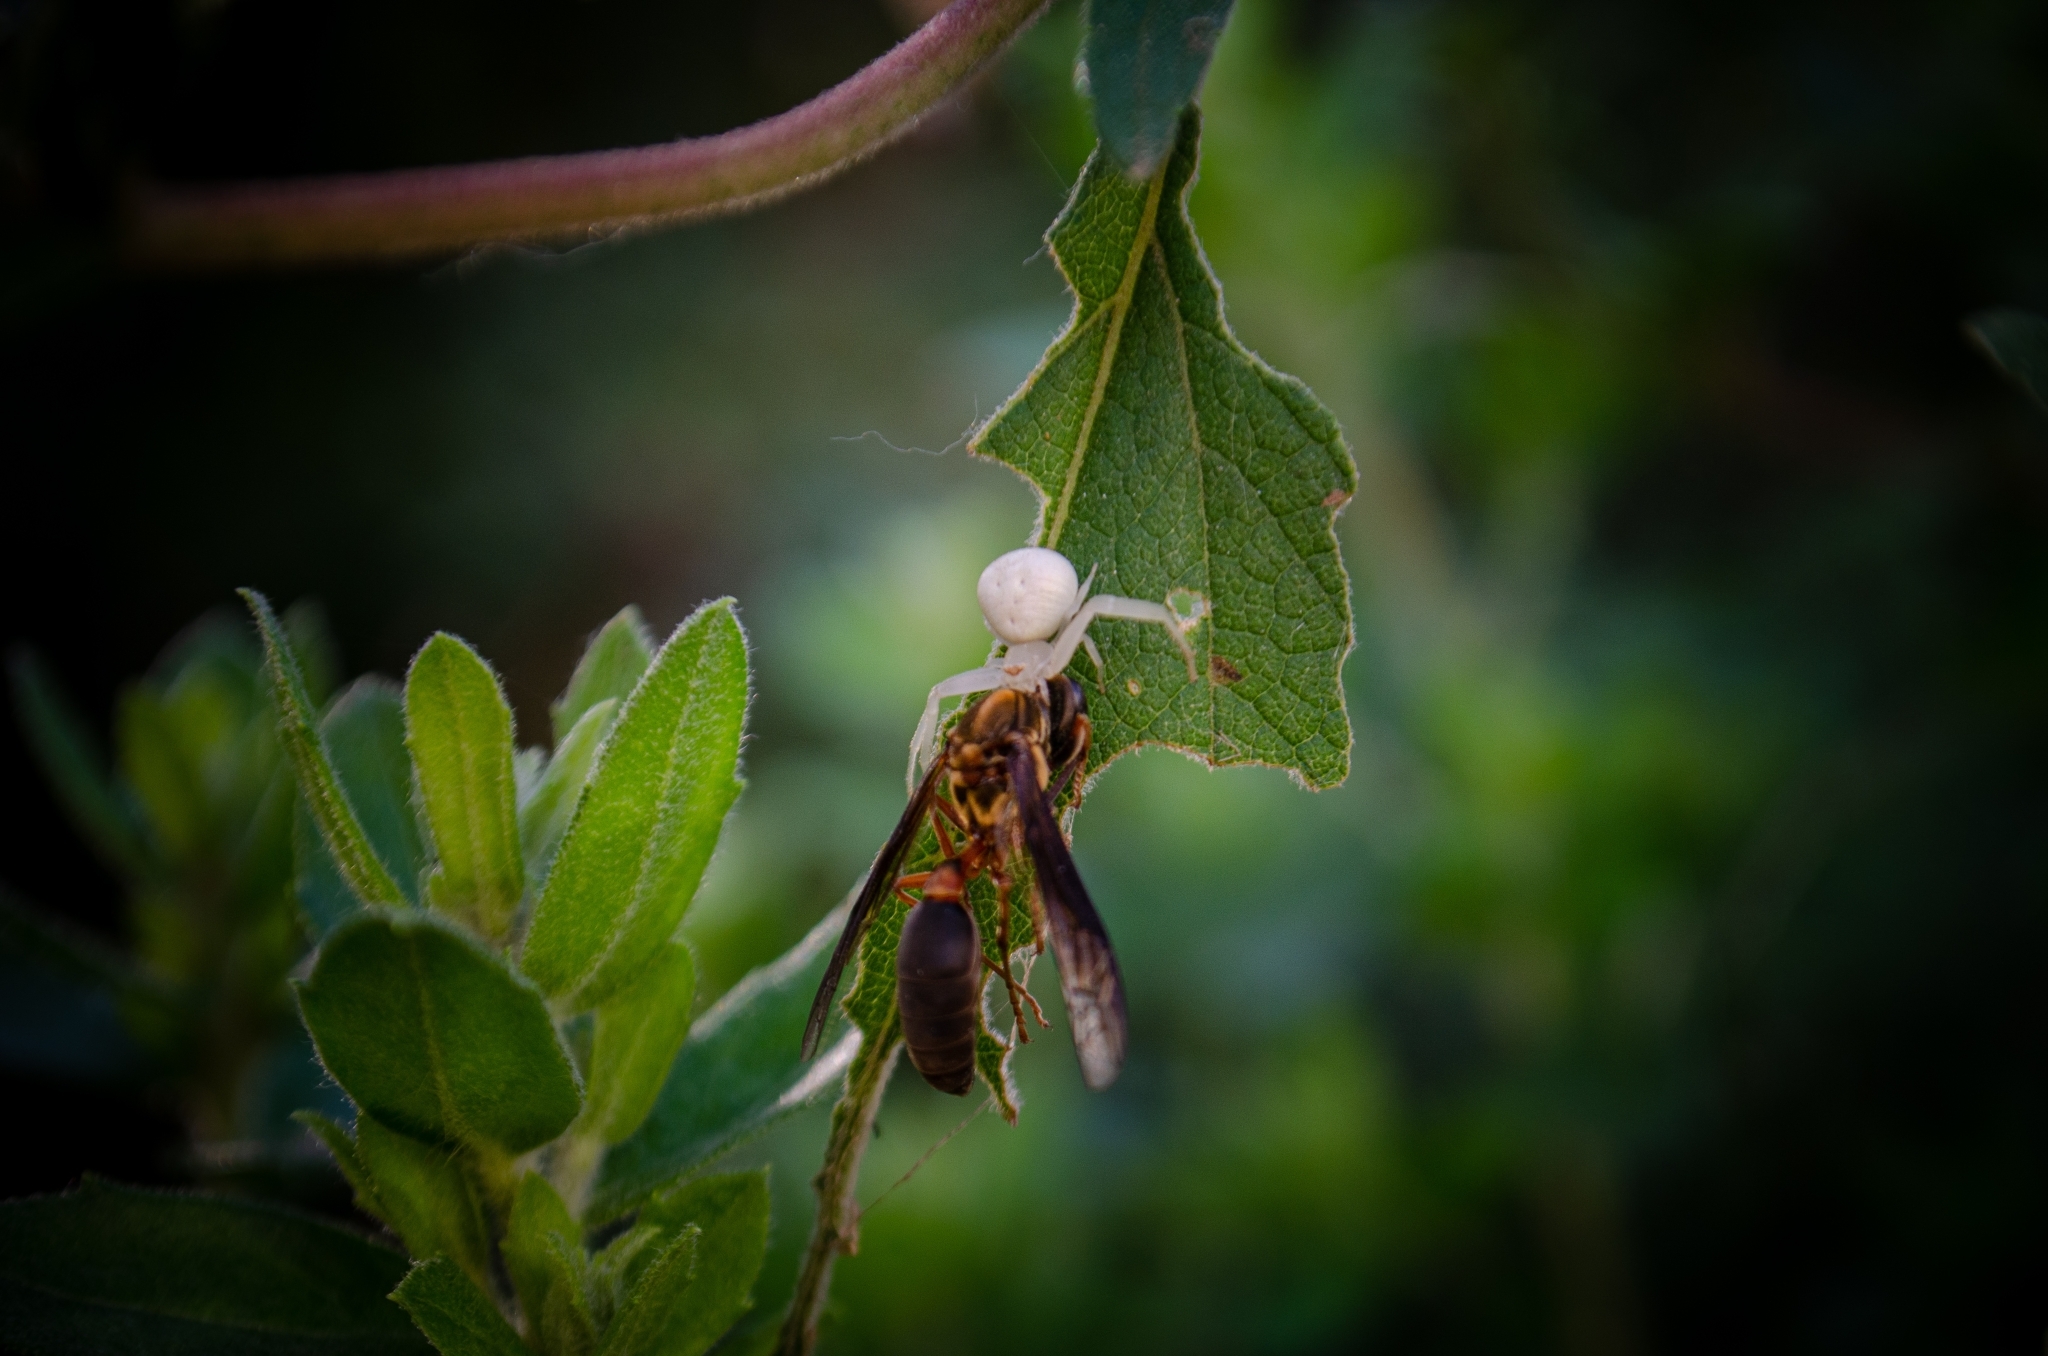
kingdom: Animalia
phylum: Arthropoda
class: Insecta
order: Hymenoptera
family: Eumenidae
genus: Polybia
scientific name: Polybia sericea
